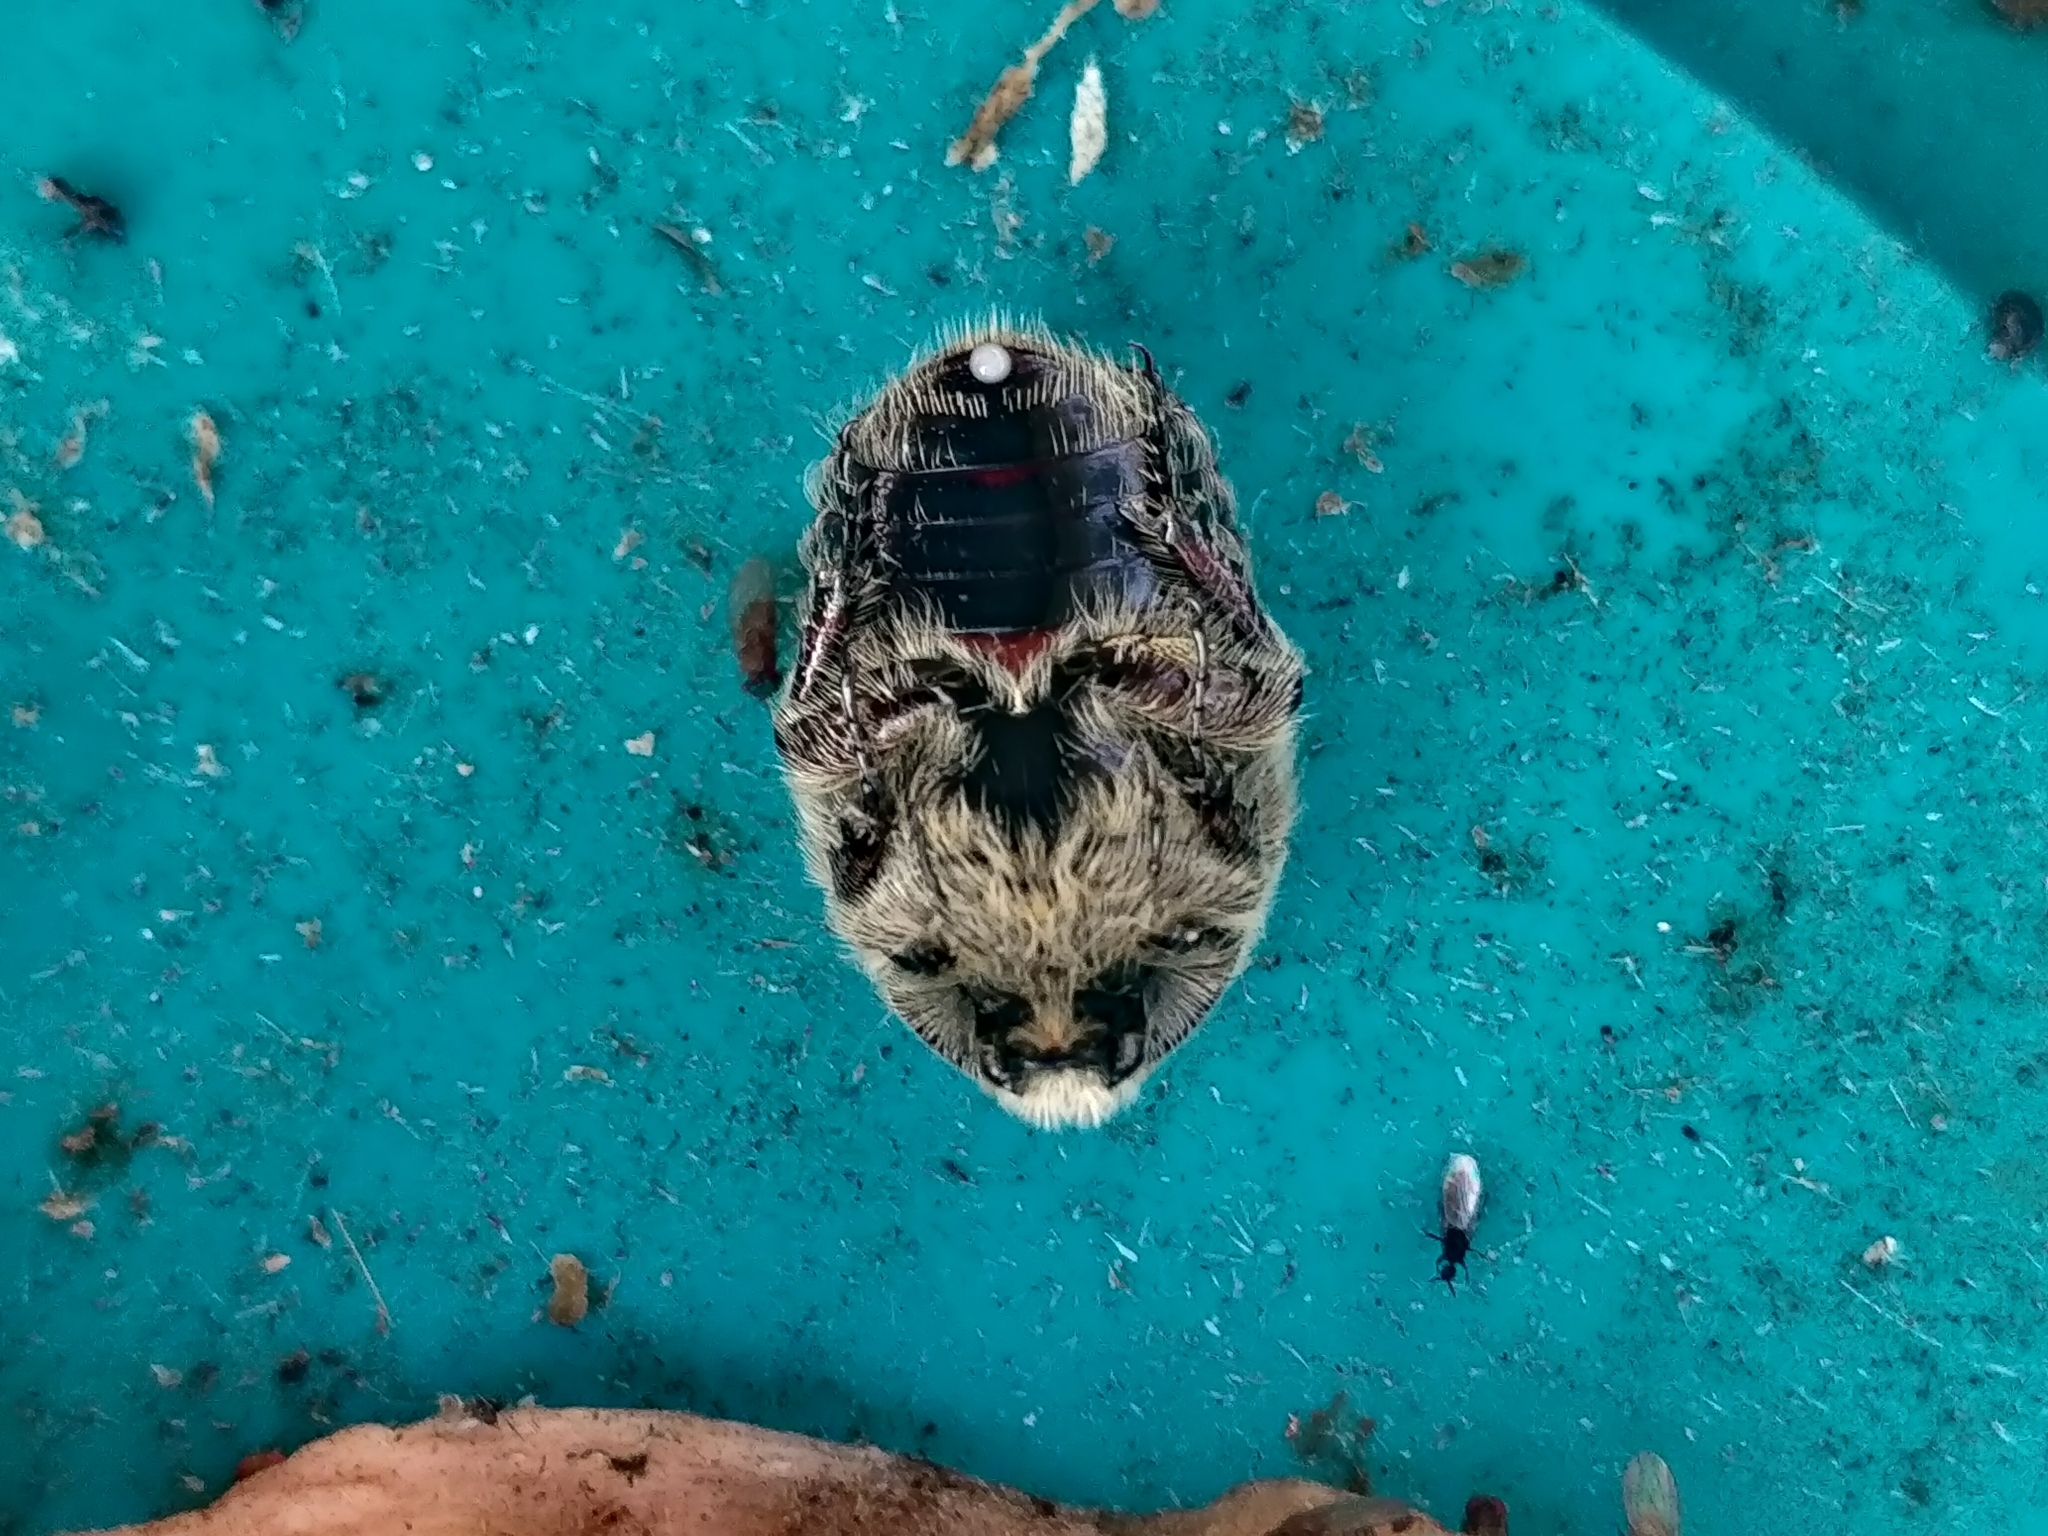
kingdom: Animalia
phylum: Arthropoda
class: Insecta
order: Coleoptera
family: Scarabaeidae
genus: Euphoria
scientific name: Euphoria inda
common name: Bumble flower beetle
